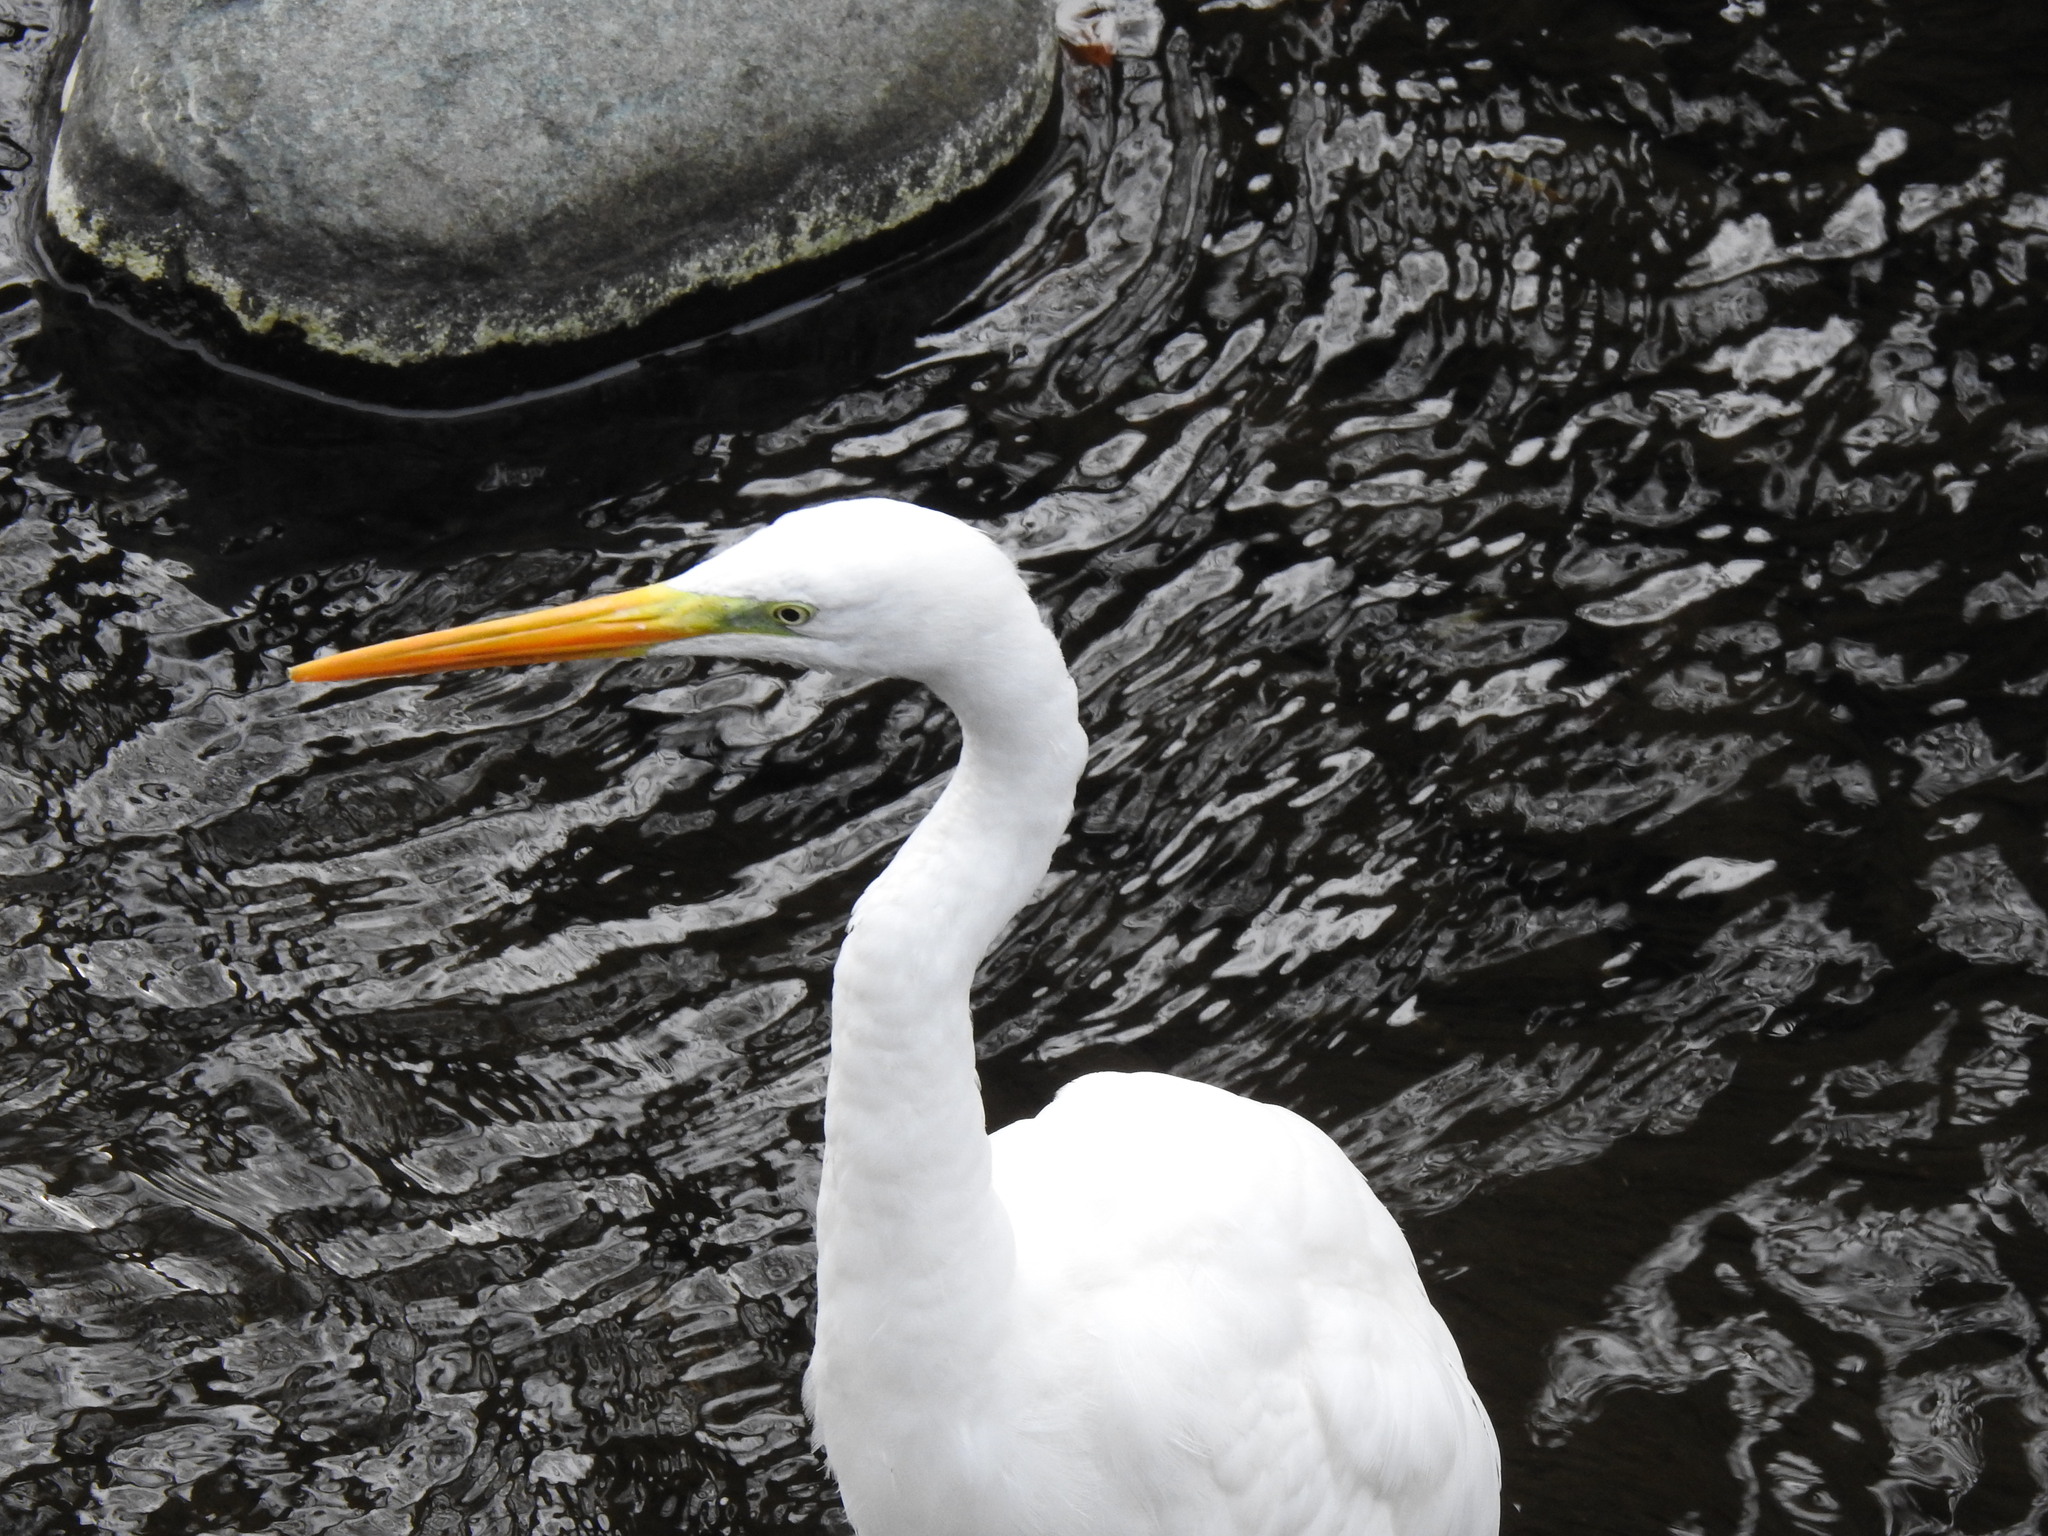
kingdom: Animalia
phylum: Chordata
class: Aves
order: Pelecaniformes
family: Ardeidae
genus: Ardea
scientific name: Ardea alba
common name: Great egret
